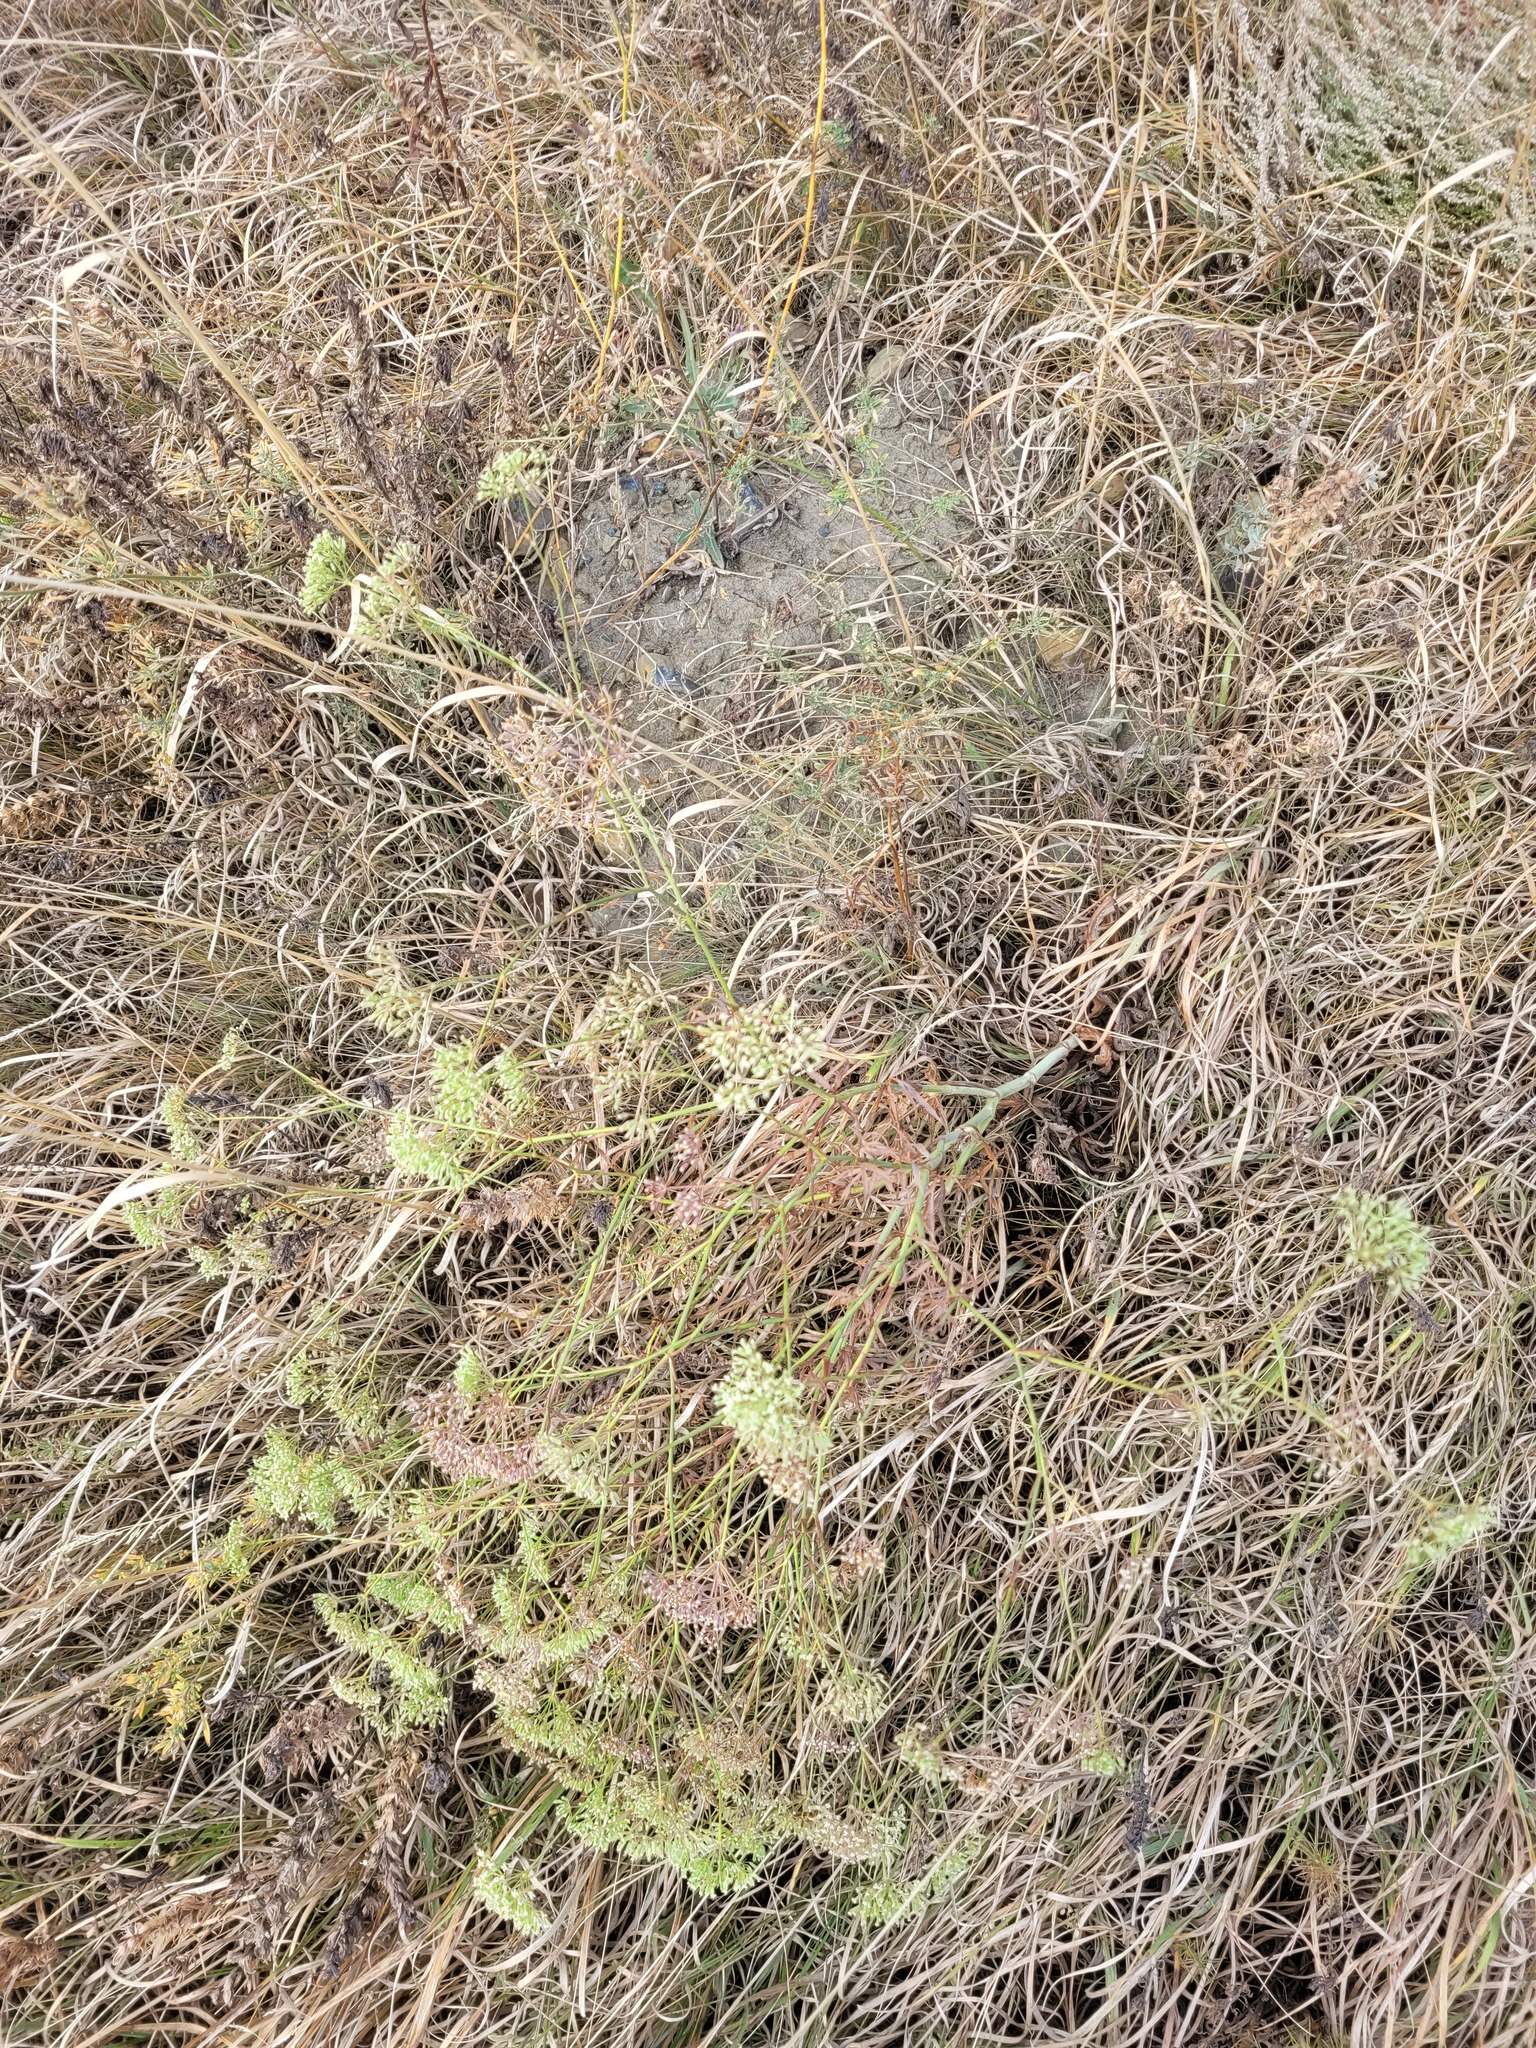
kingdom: Plantae
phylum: Tracheophyta
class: Magnoliopsida
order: Apiales
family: Apiaceae
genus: Falcaria
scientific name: Falcaria vulgaris
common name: Longleaf
